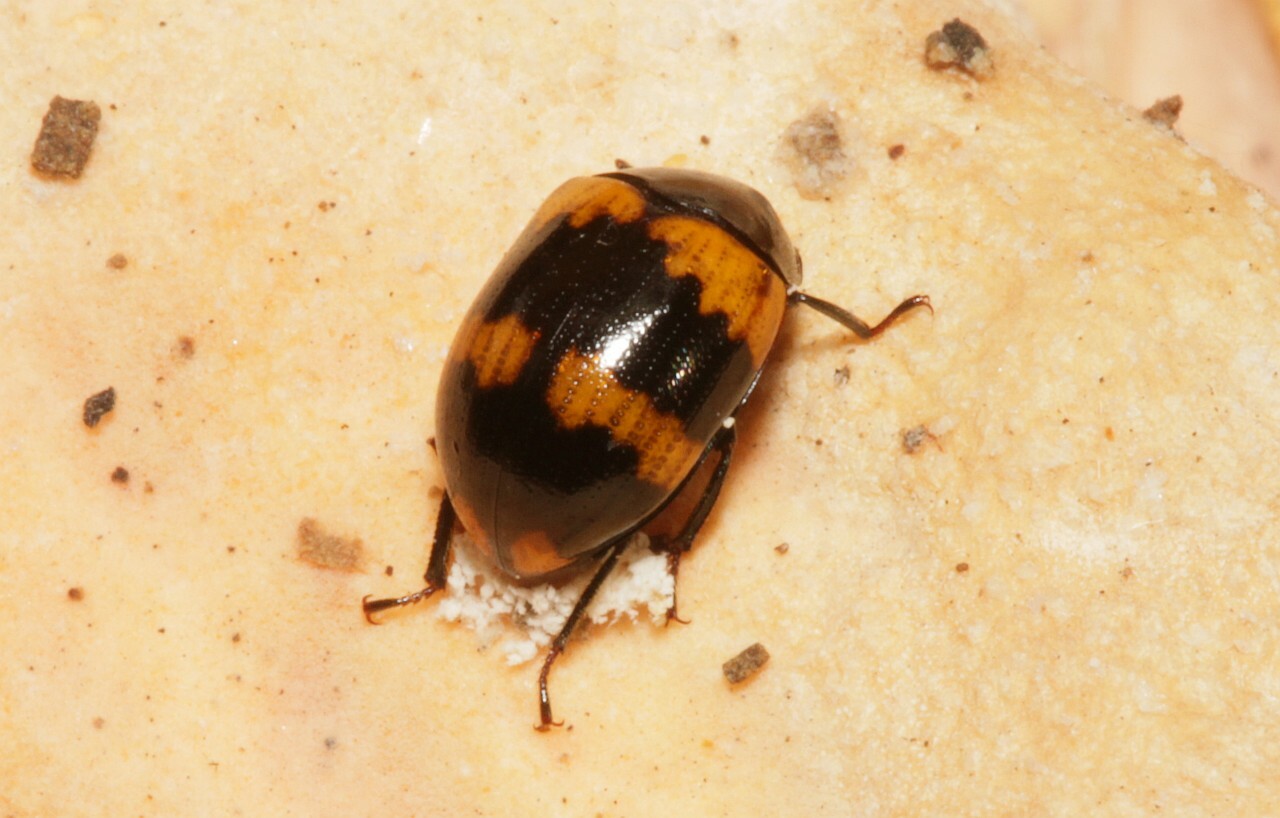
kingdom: Animalia
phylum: Arthropoda
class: Insecta
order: Coleoptera
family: Tenebrionidae
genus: Diaperis
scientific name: Diaperis boleti
